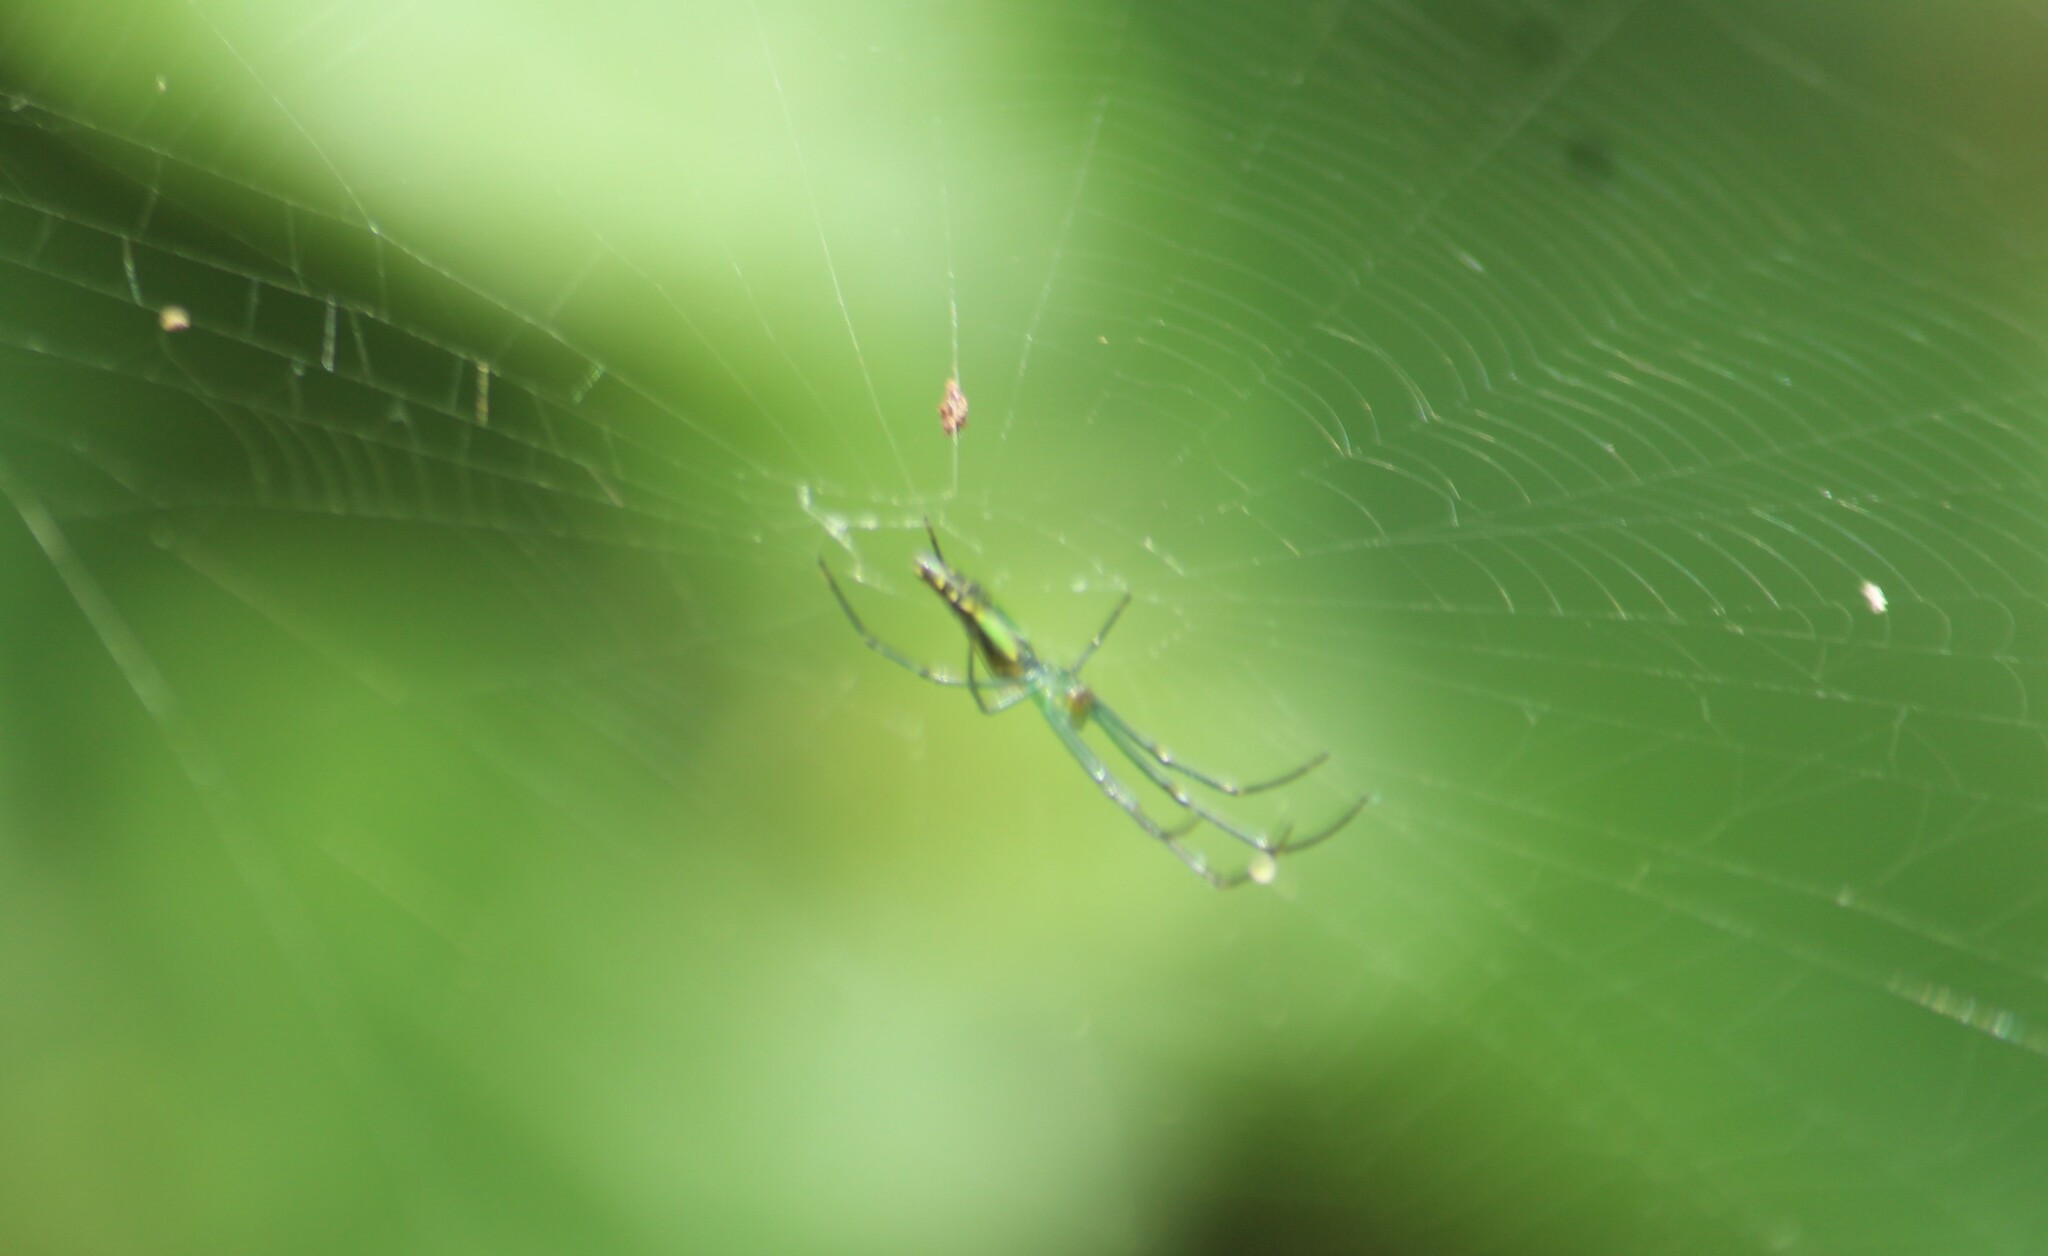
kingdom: Animalia
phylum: Arthropoda
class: Arachnida
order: Araneae
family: Tetragnathidae
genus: Leucauge
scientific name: Leucauge decorata
